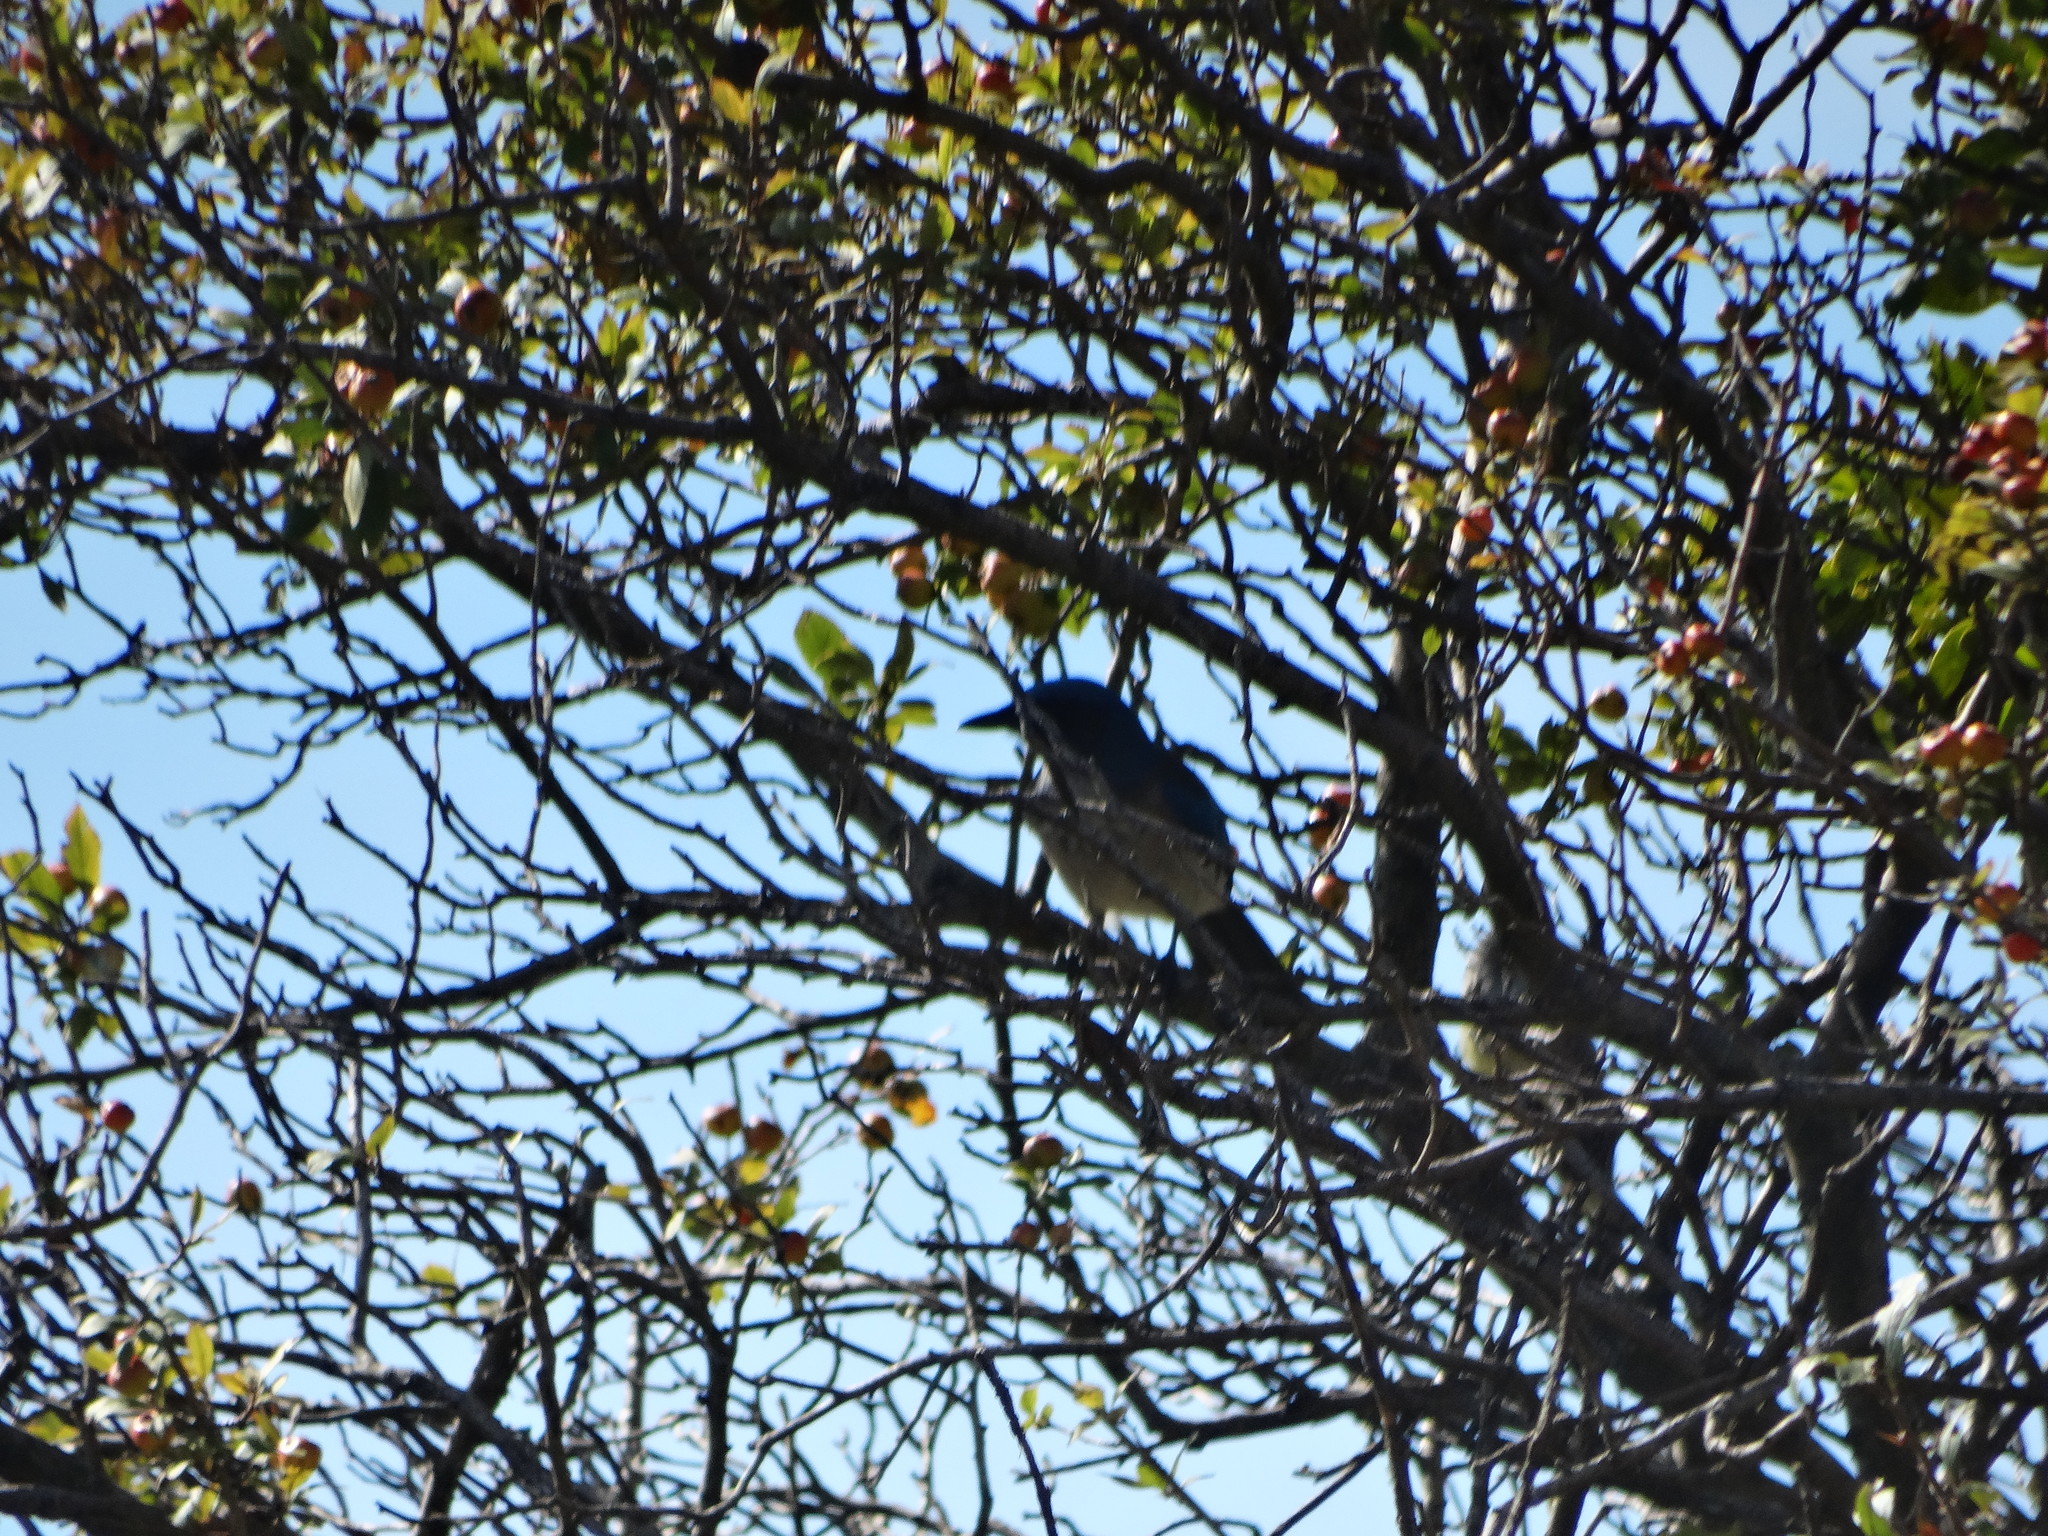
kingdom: Animalia
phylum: Chordata
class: Aves
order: Passeriformes
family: Corvidae
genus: Aphelocoma
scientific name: Aphelocoma woodhouseii
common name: Woodhouse's scrub-jay
